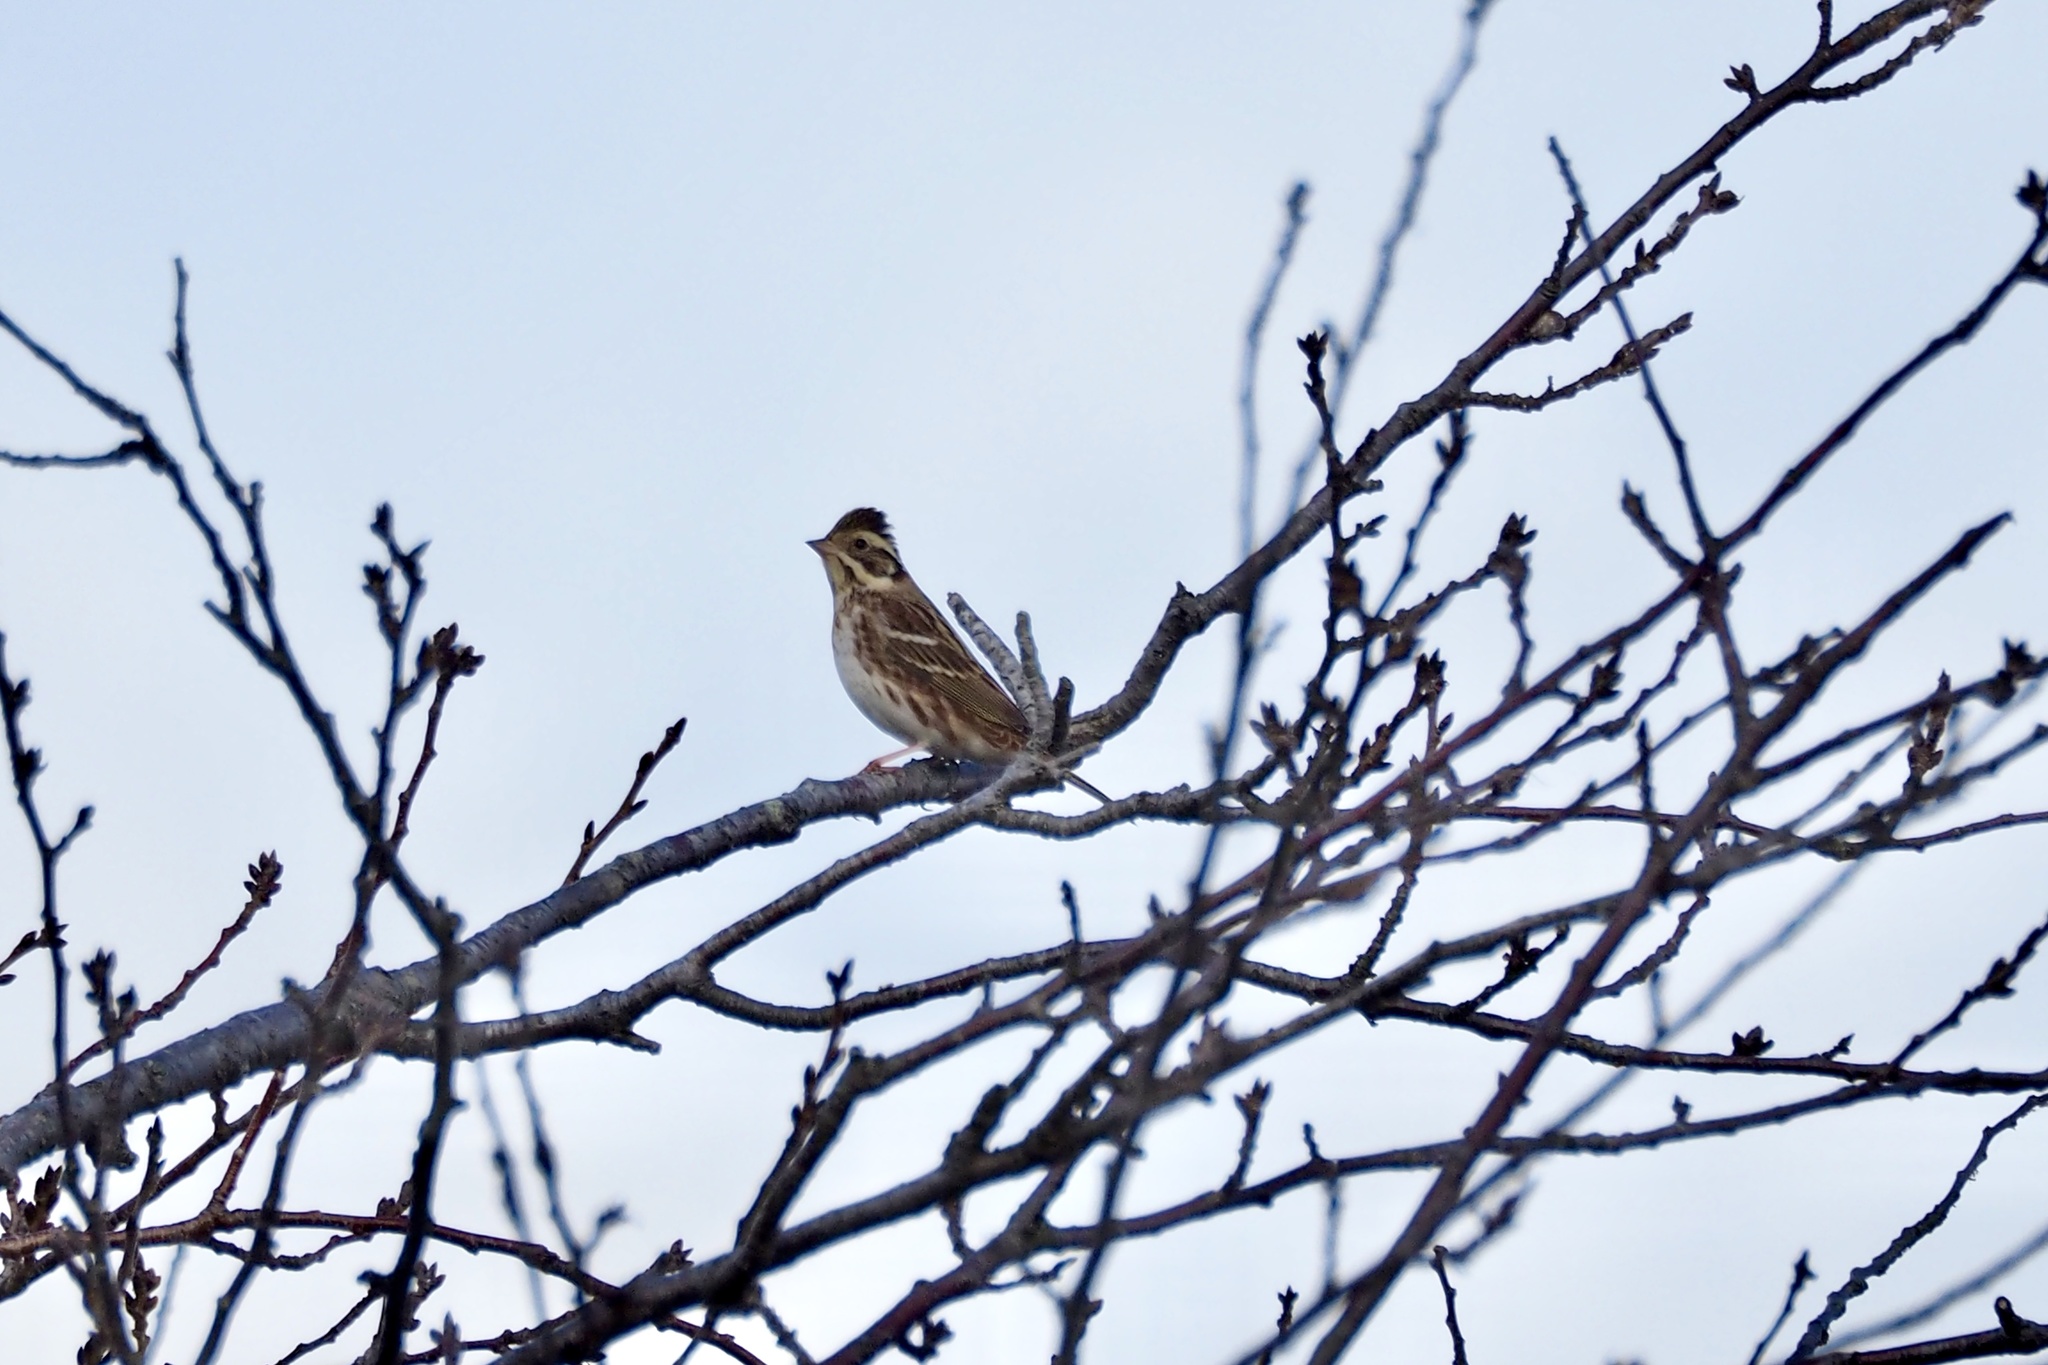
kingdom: Animalia
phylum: Chordata
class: Aves
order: Passeriformes
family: Emberizidae
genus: Emberiza
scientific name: Emberiza rustica
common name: Rustic bunting
